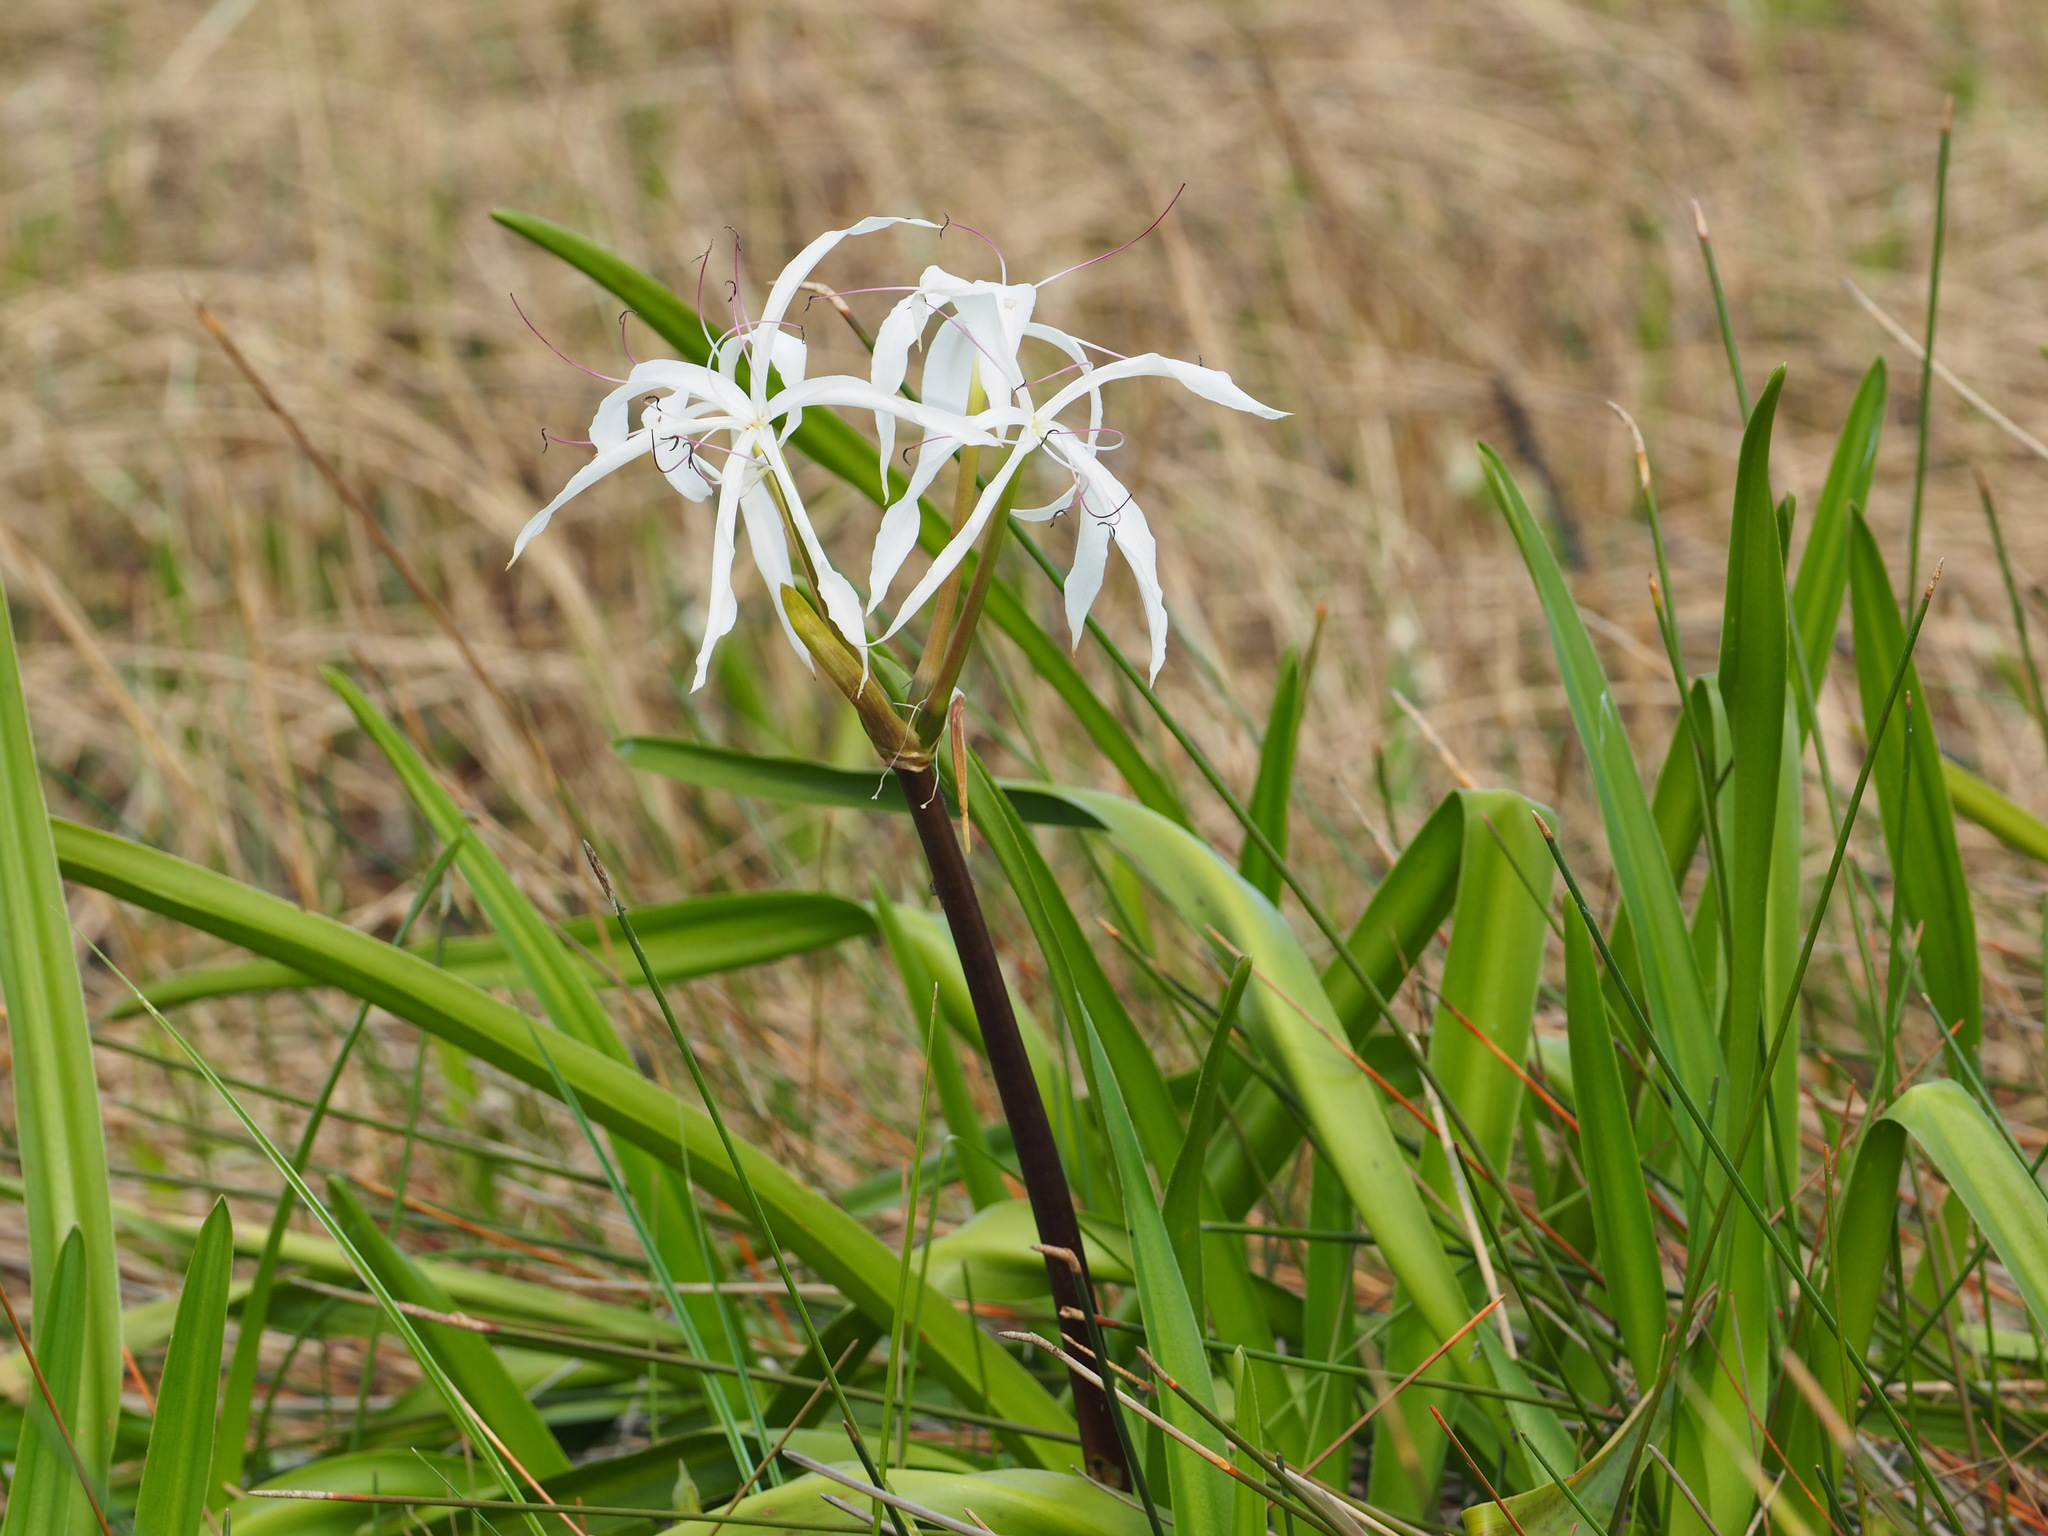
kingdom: Plantae
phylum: Tracheophyta
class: Liliopsida
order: Asparagales
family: Amaryllidaceae
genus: Crinum
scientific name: Crinum americanum
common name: Florida swamp-lily
